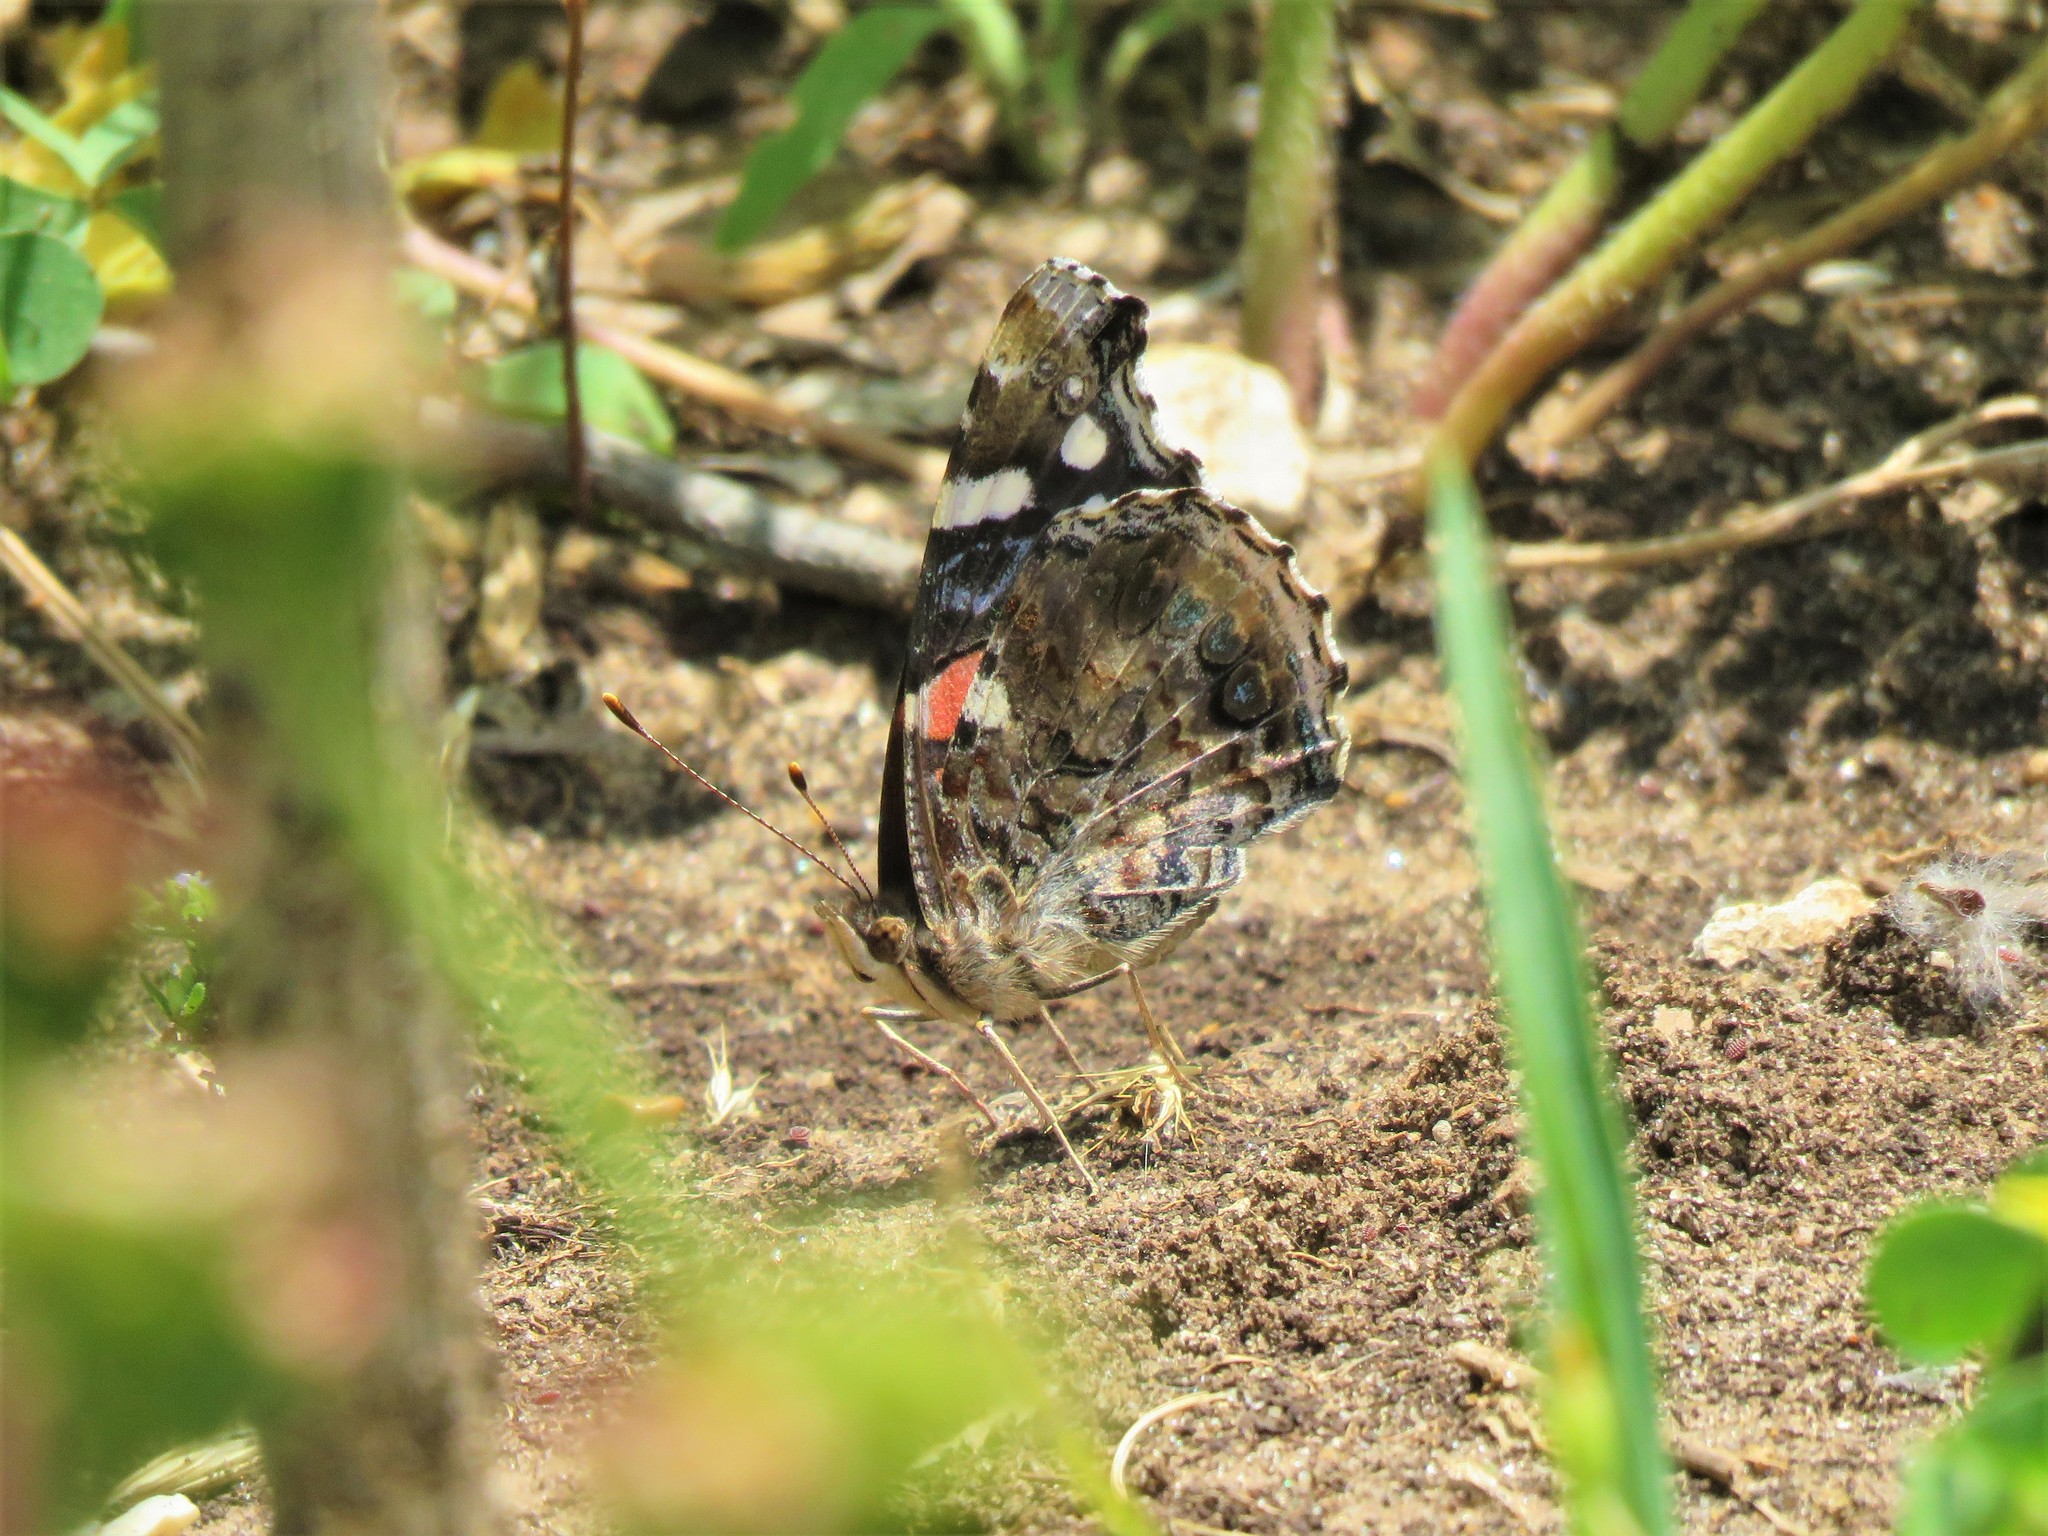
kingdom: Animalia
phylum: Arthropoda
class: Insecta
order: Lepidoptera
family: Nymphalidae
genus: Vanessa
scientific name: Vanessa atalanta
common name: Red admiral
